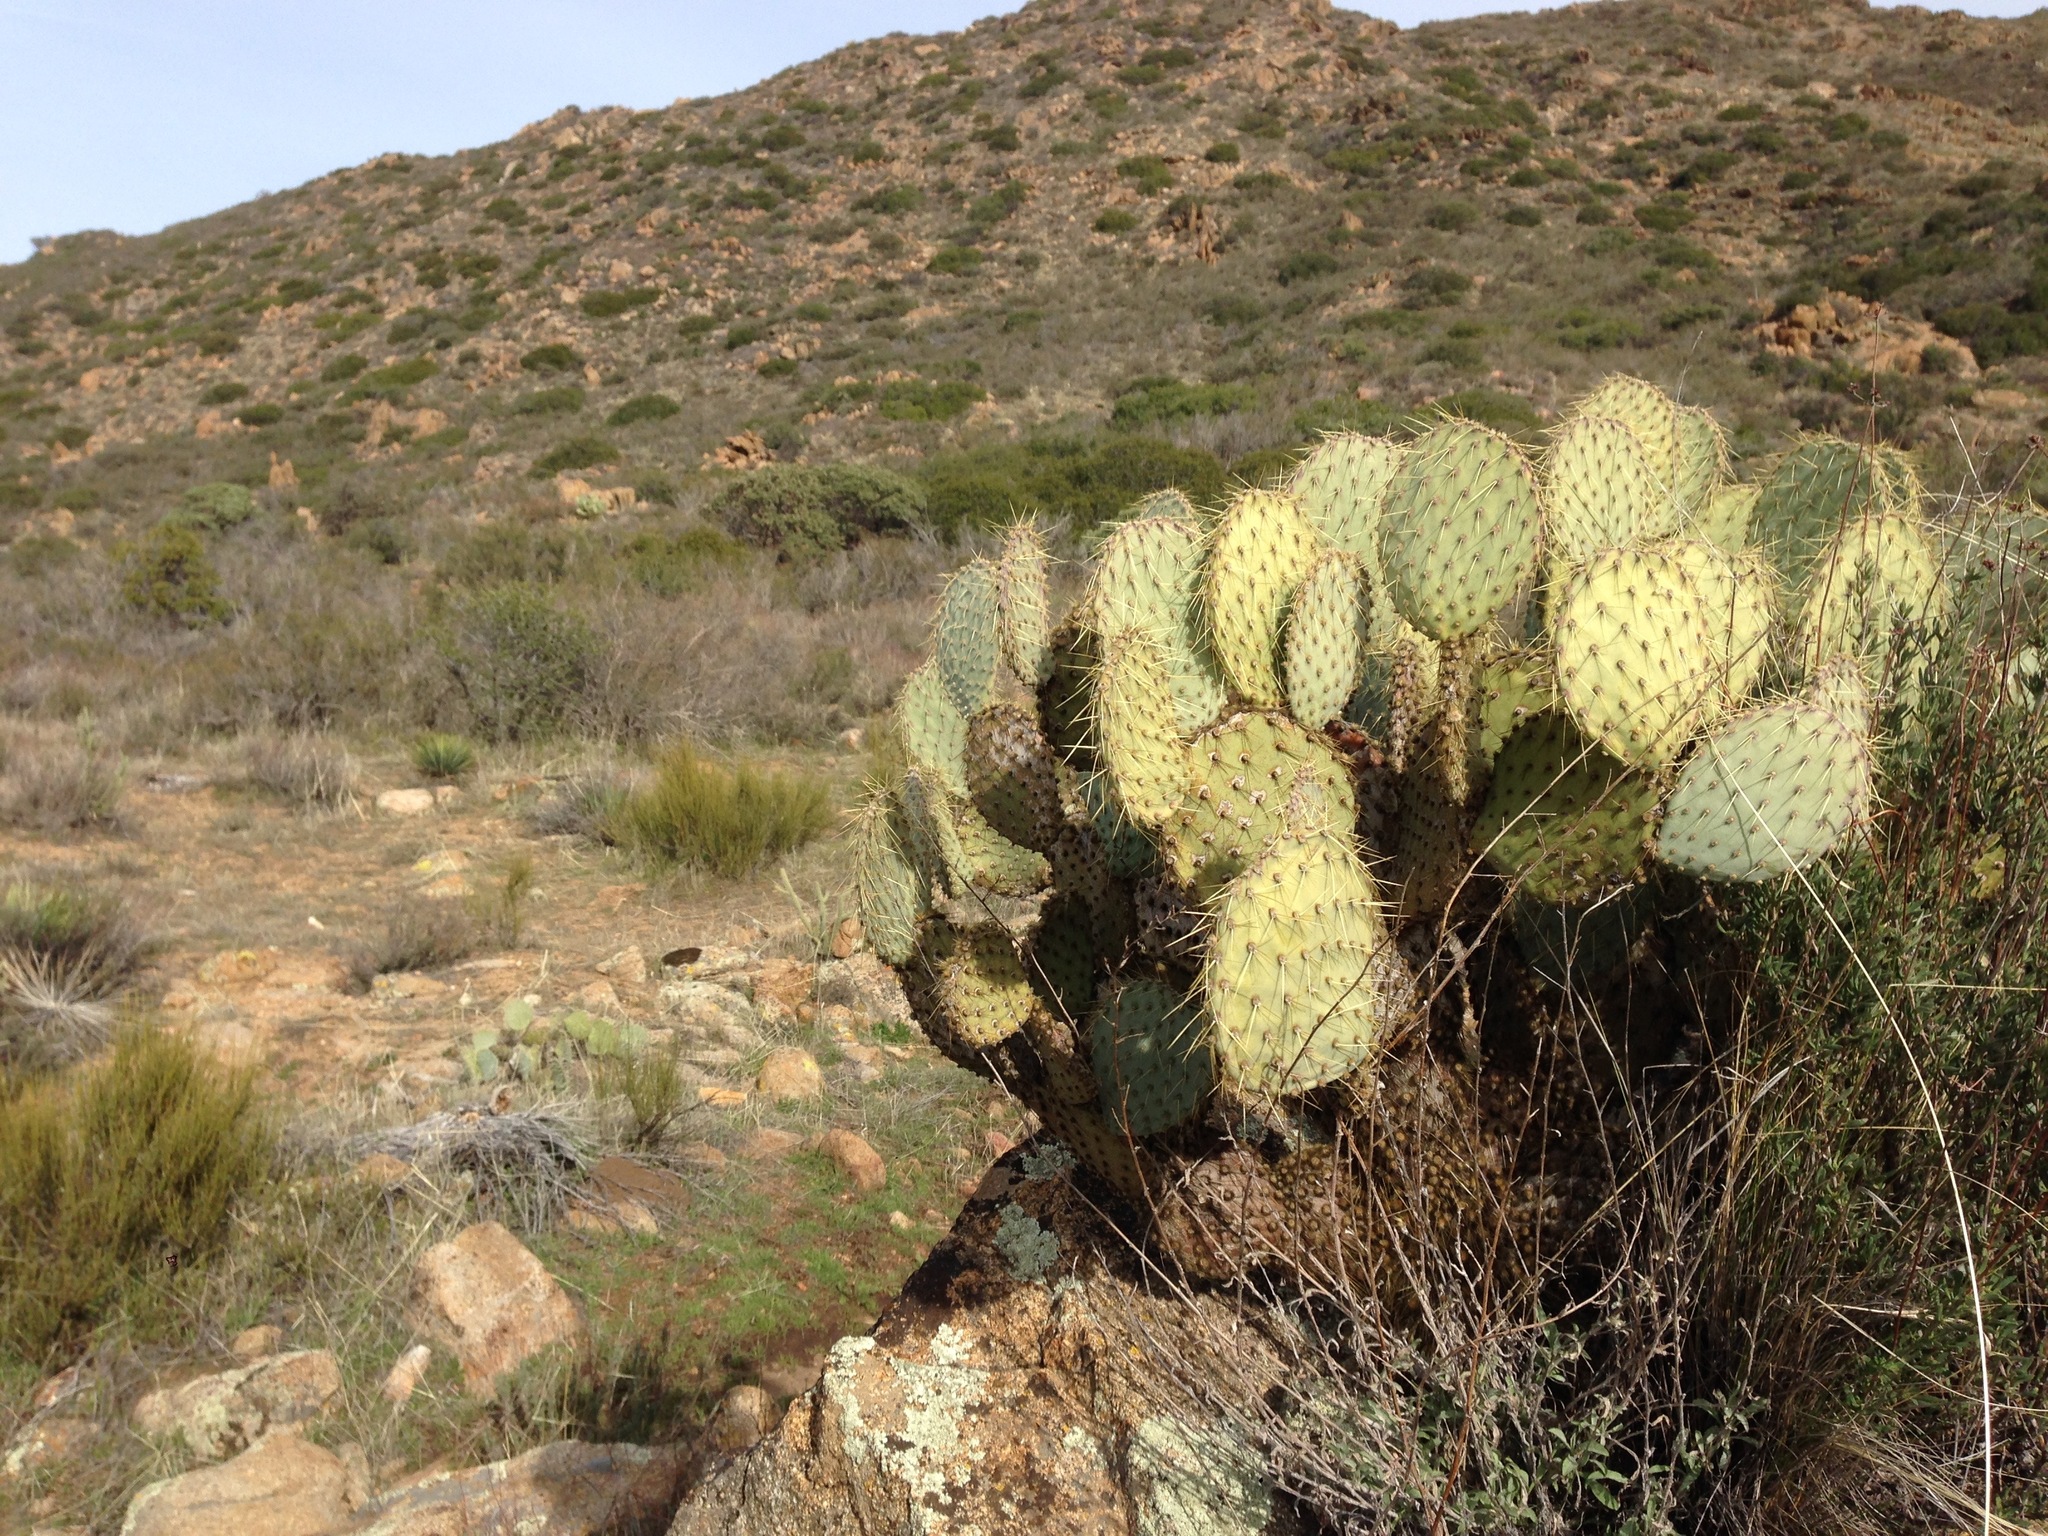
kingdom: Plantae
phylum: Tracheophyta
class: Magnoliopsida
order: Caryophyllales
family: Cactaceae
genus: Opuntia
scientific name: Opuntia chlorotica
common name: Dollar-joint prickly-pear
